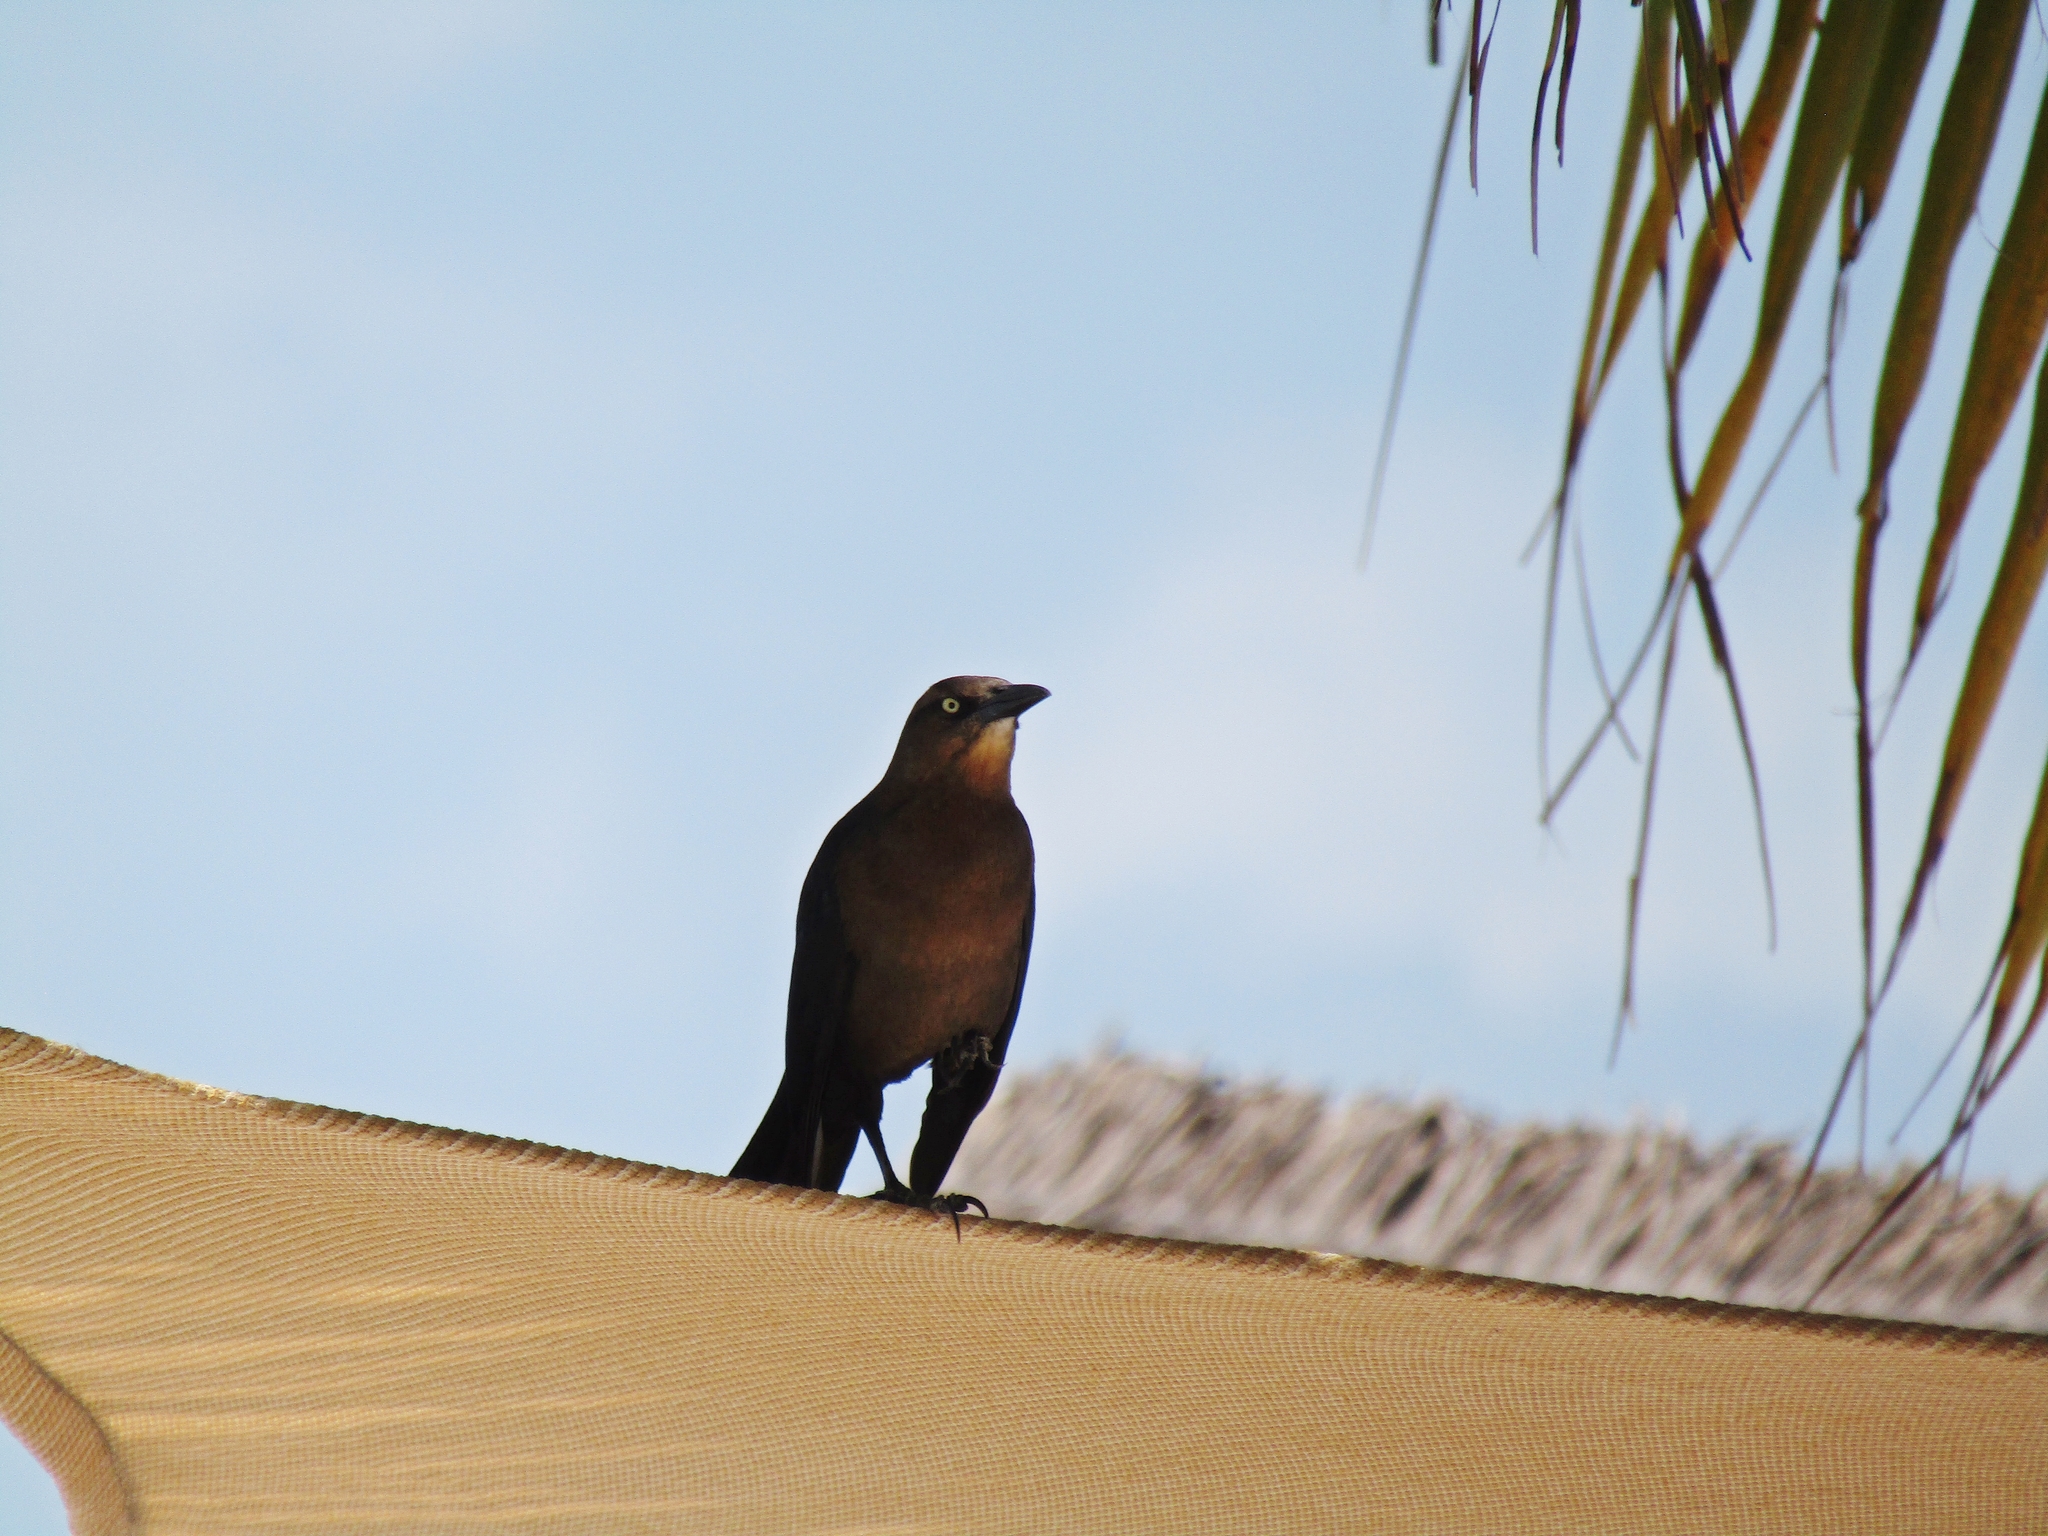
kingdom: Animalia
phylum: Chordata
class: Aves
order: Passeriformes
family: Icteridae
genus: Quiscalus
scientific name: Quiscalus mexicanus
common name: Great-tailed grackle
